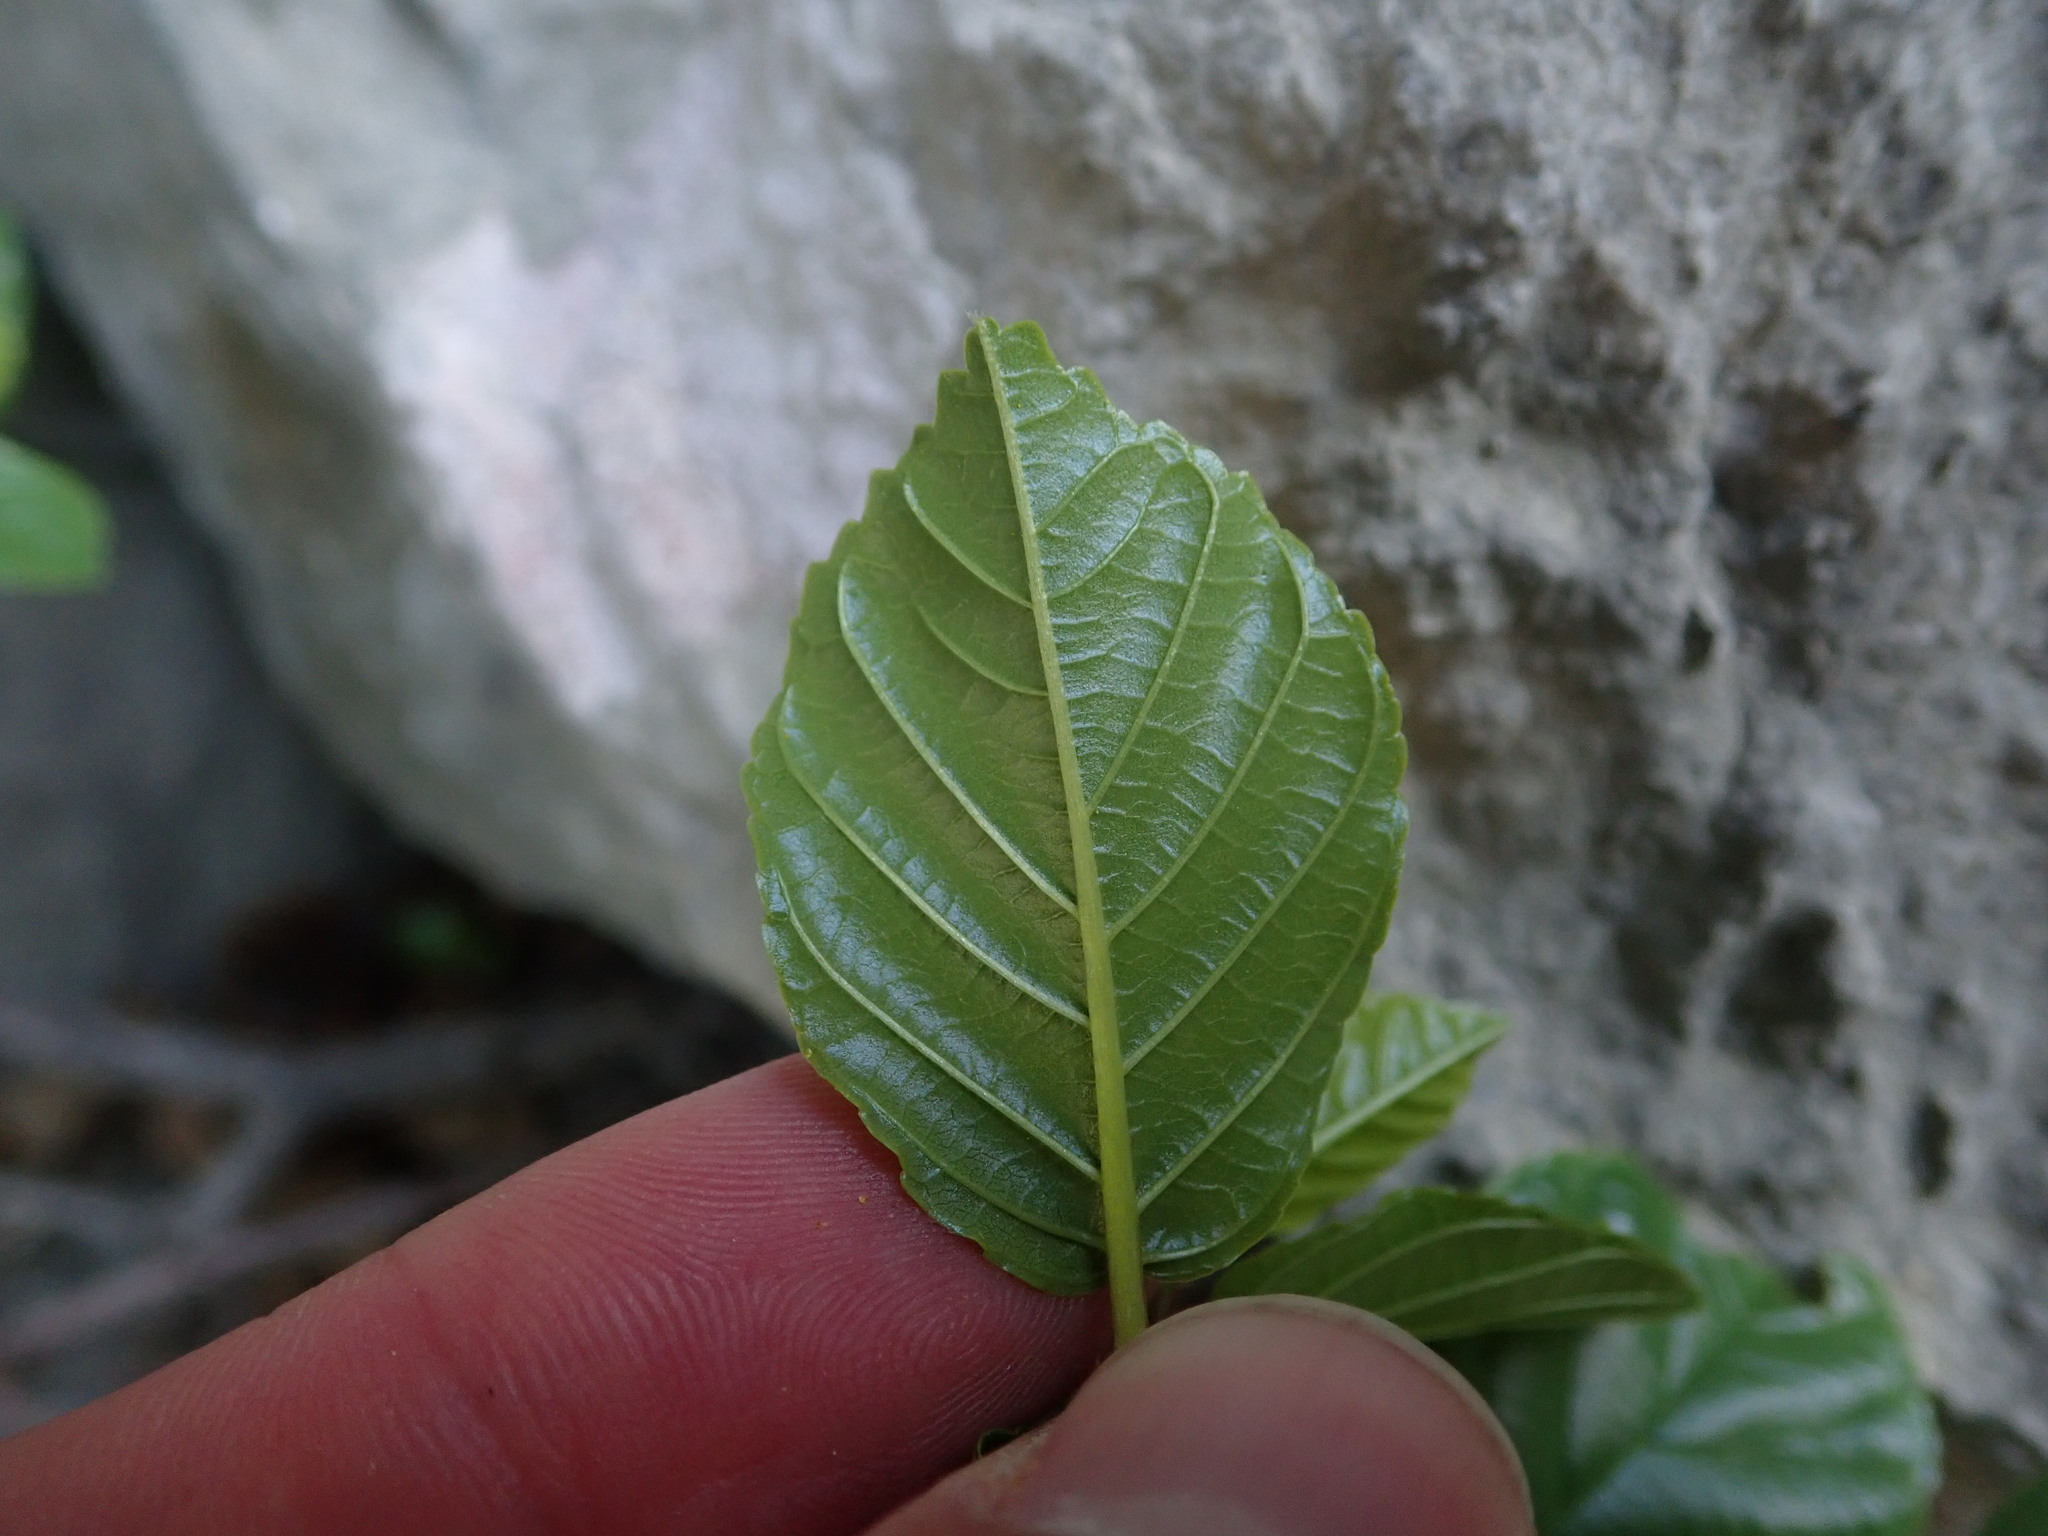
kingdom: Plantae
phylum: Tracheophyta
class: Magnoliopsida
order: Rosales
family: Rhamnaceae
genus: Frangula
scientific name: Frangula rupestris
